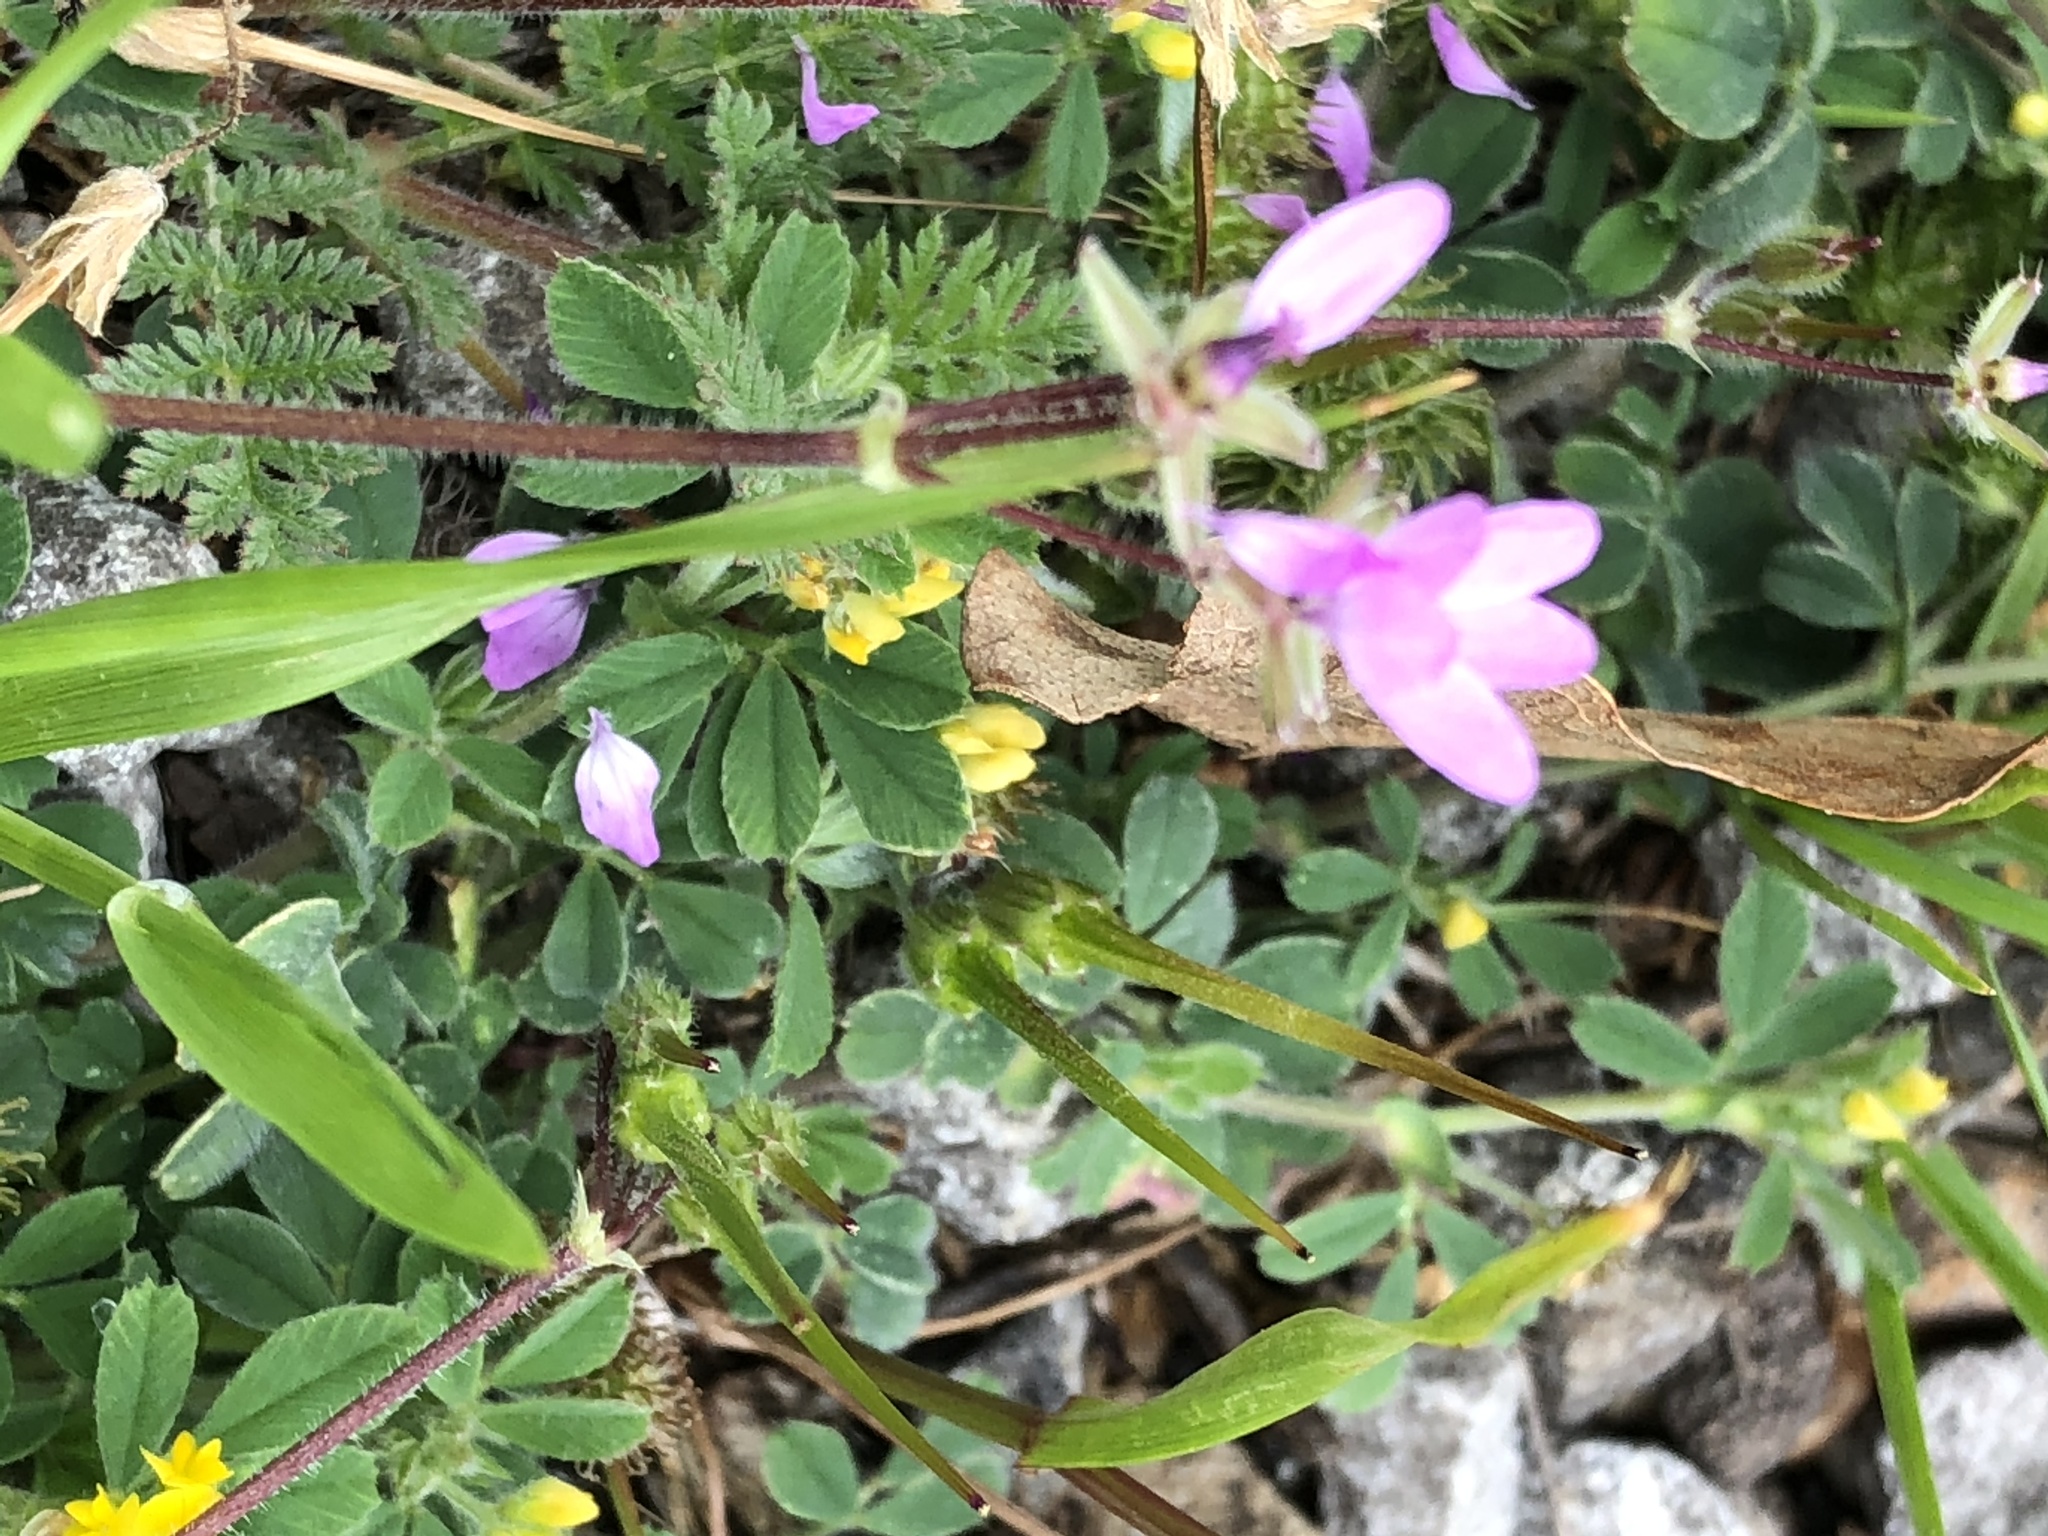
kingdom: Plantae
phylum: Tracheophyta
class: Magnoliopsida
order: Geraniales
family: Geraniaceae
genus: Erodium
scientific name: Erodium cicutarium
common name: Common stork's-bill
